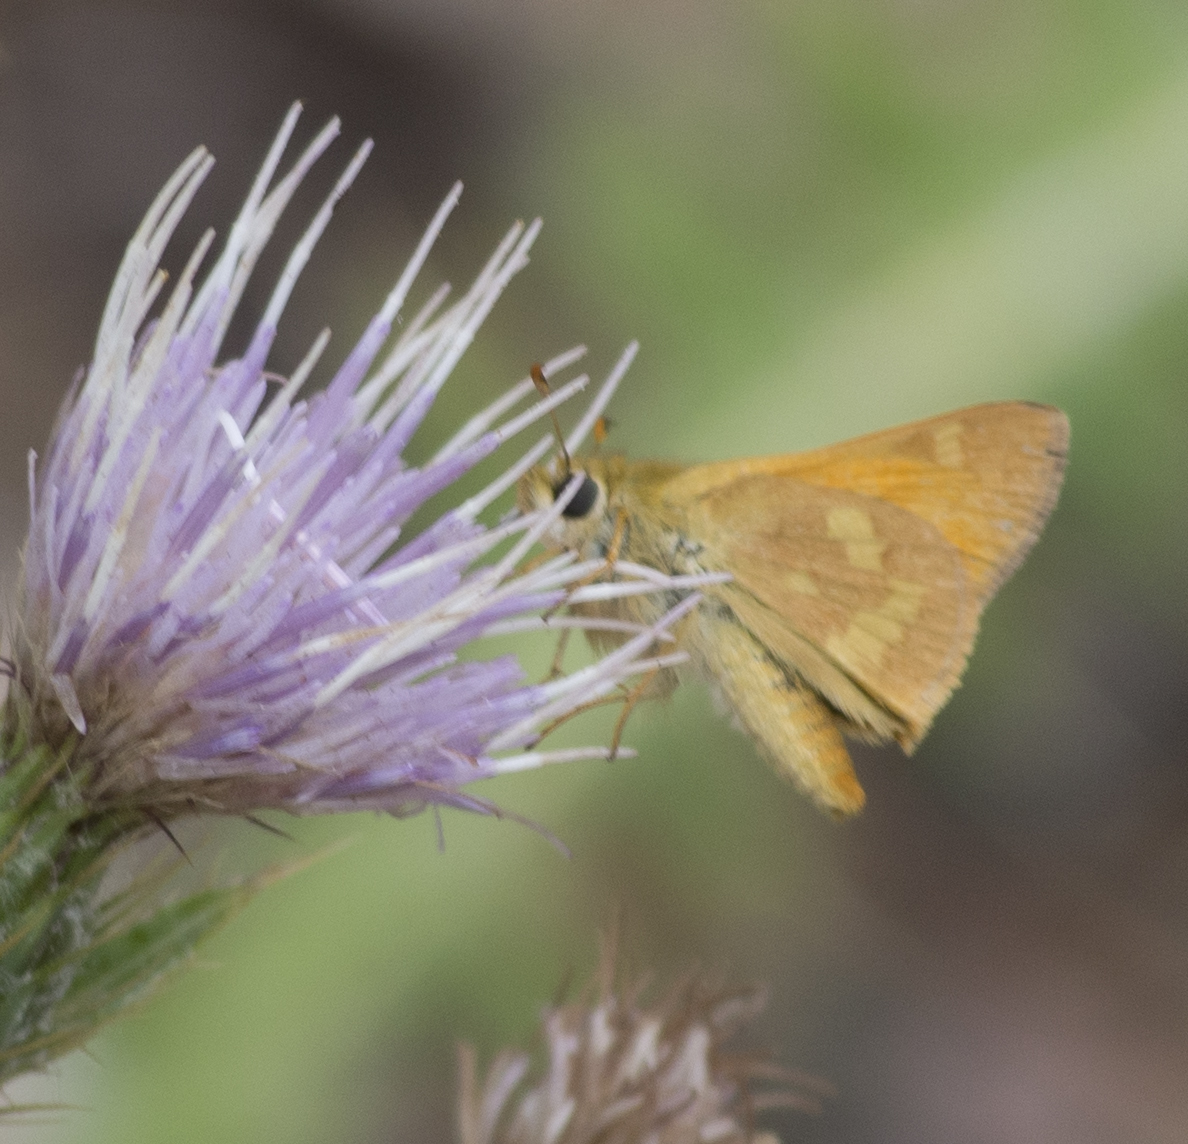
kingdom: Animalia
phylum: Arthropoda
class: Insecta
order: Lepidoptera
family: Hesperiidae
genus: Ochlodes
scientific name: Ochlodes sylvanoides
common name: Woodland skipper
